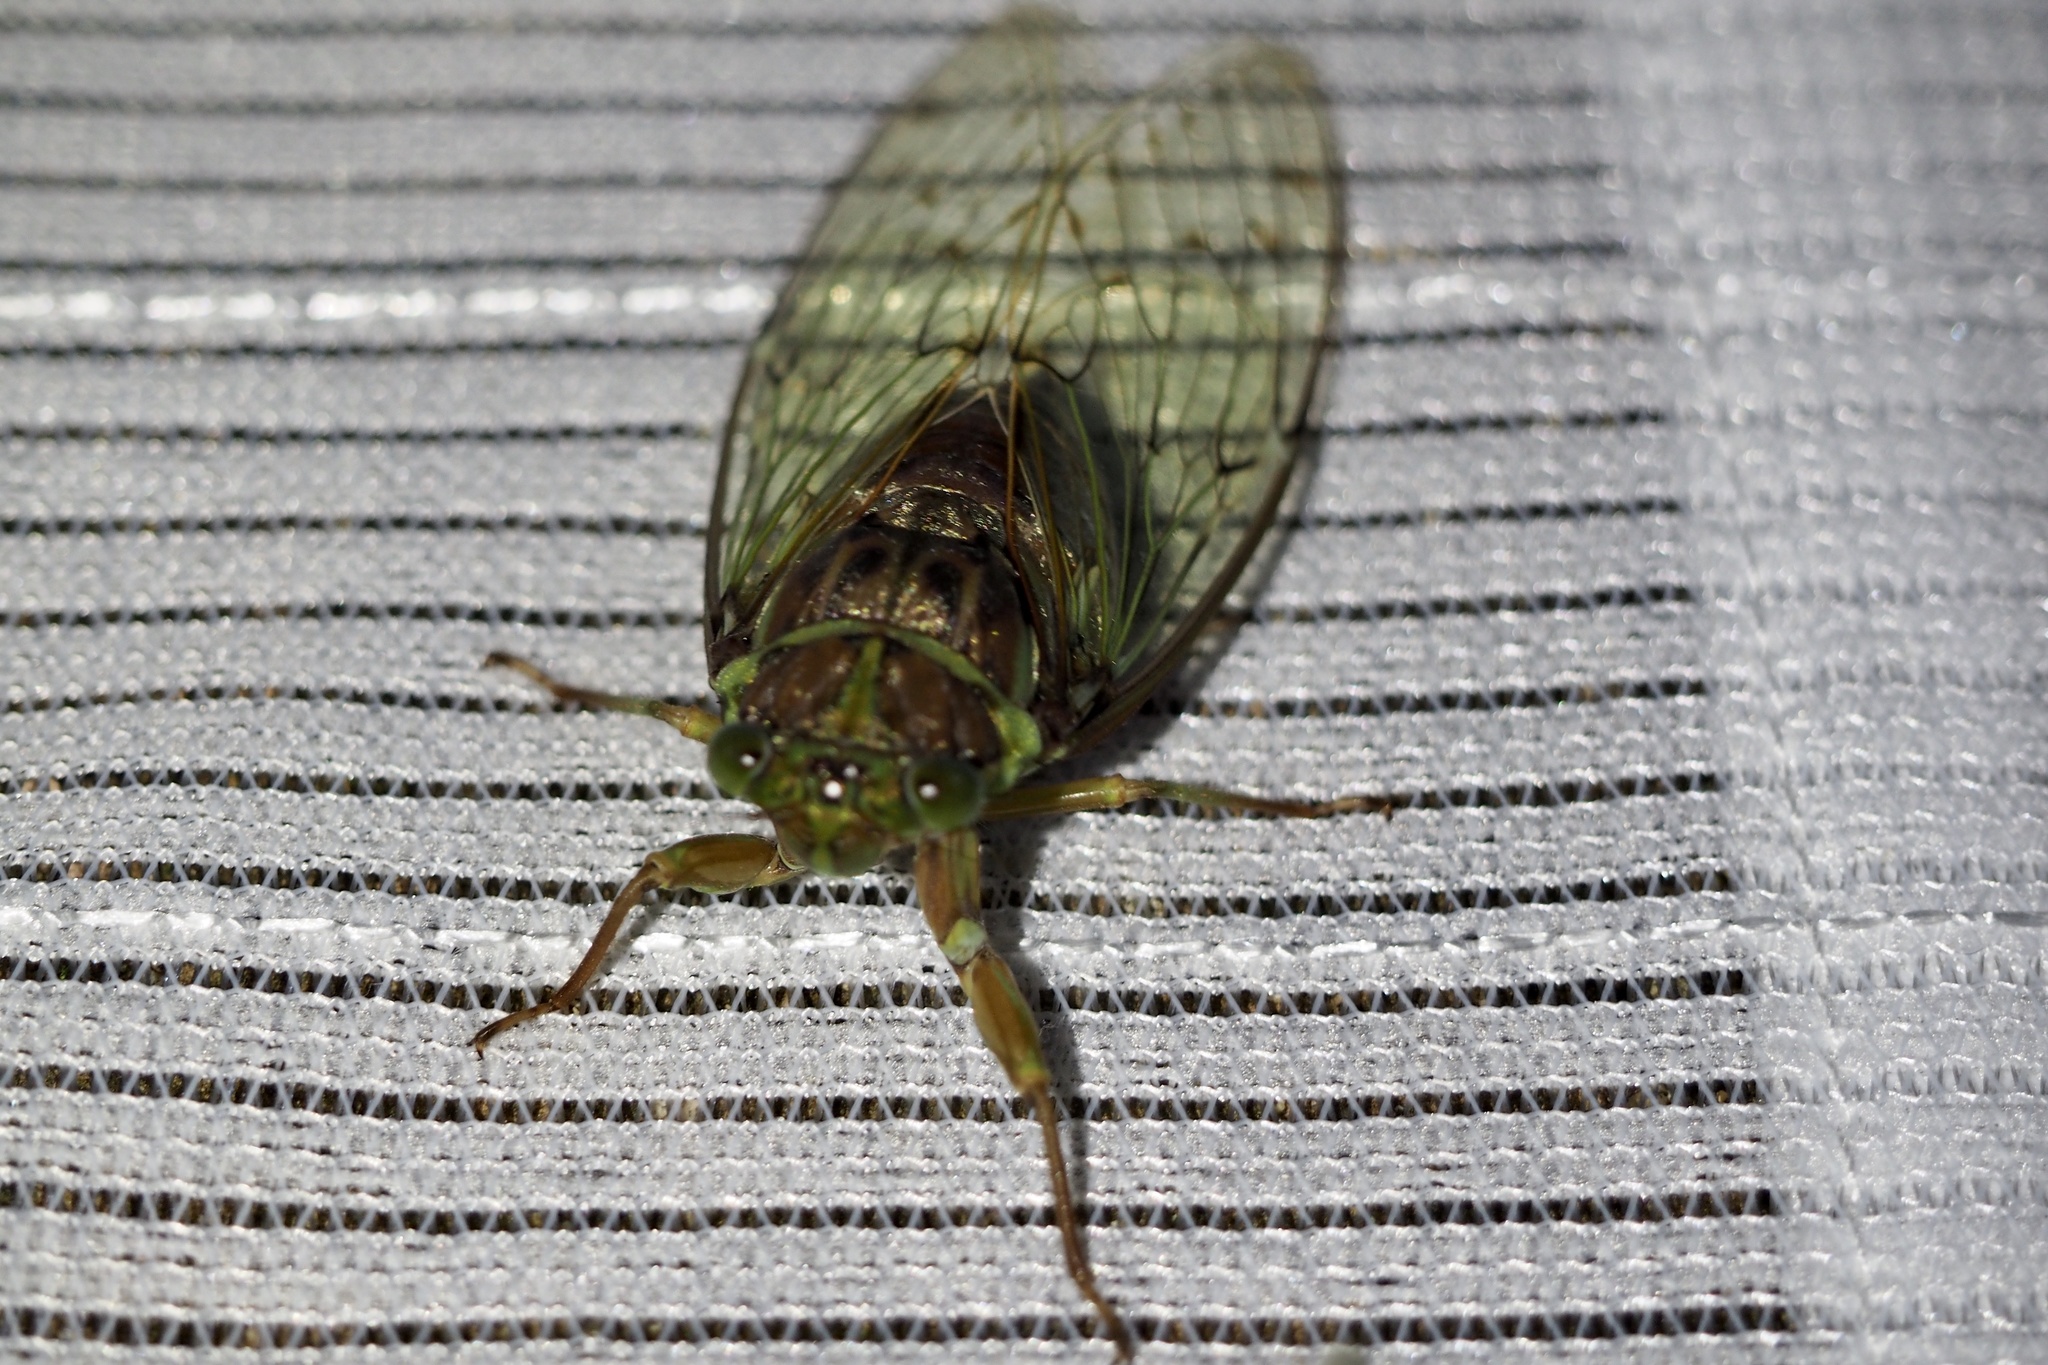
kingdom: Animalia
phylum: Arthropoda
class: Insecta
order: Hemiptera
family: Cicadidae
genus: Tanna
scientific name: Tanna japonensis
